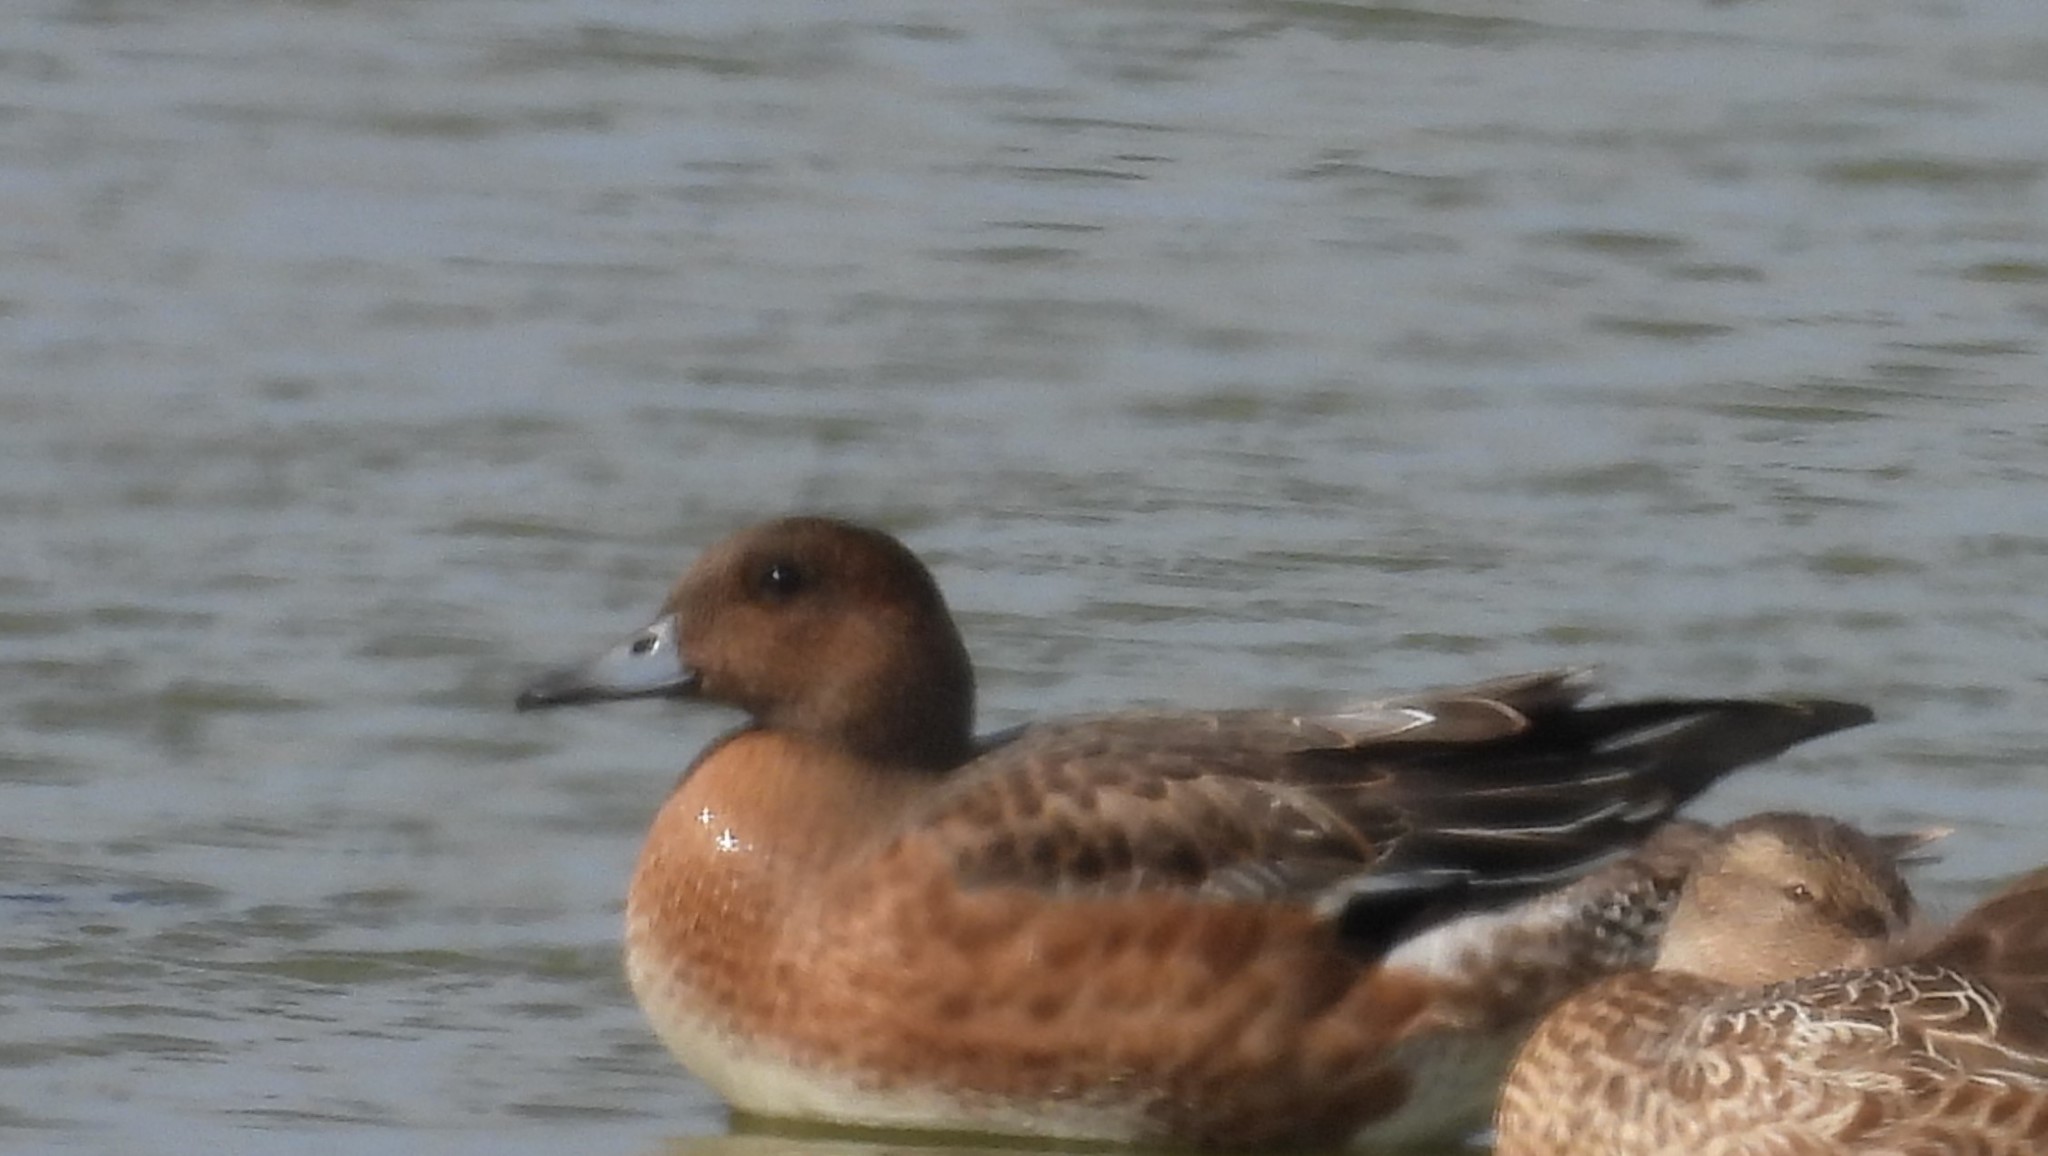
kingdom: Animalia
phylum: Chordata
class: Aves
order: Anseriformes
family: Anatidae
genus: Mareca
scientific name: Mareca penelope
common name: Eurasian wigeon
